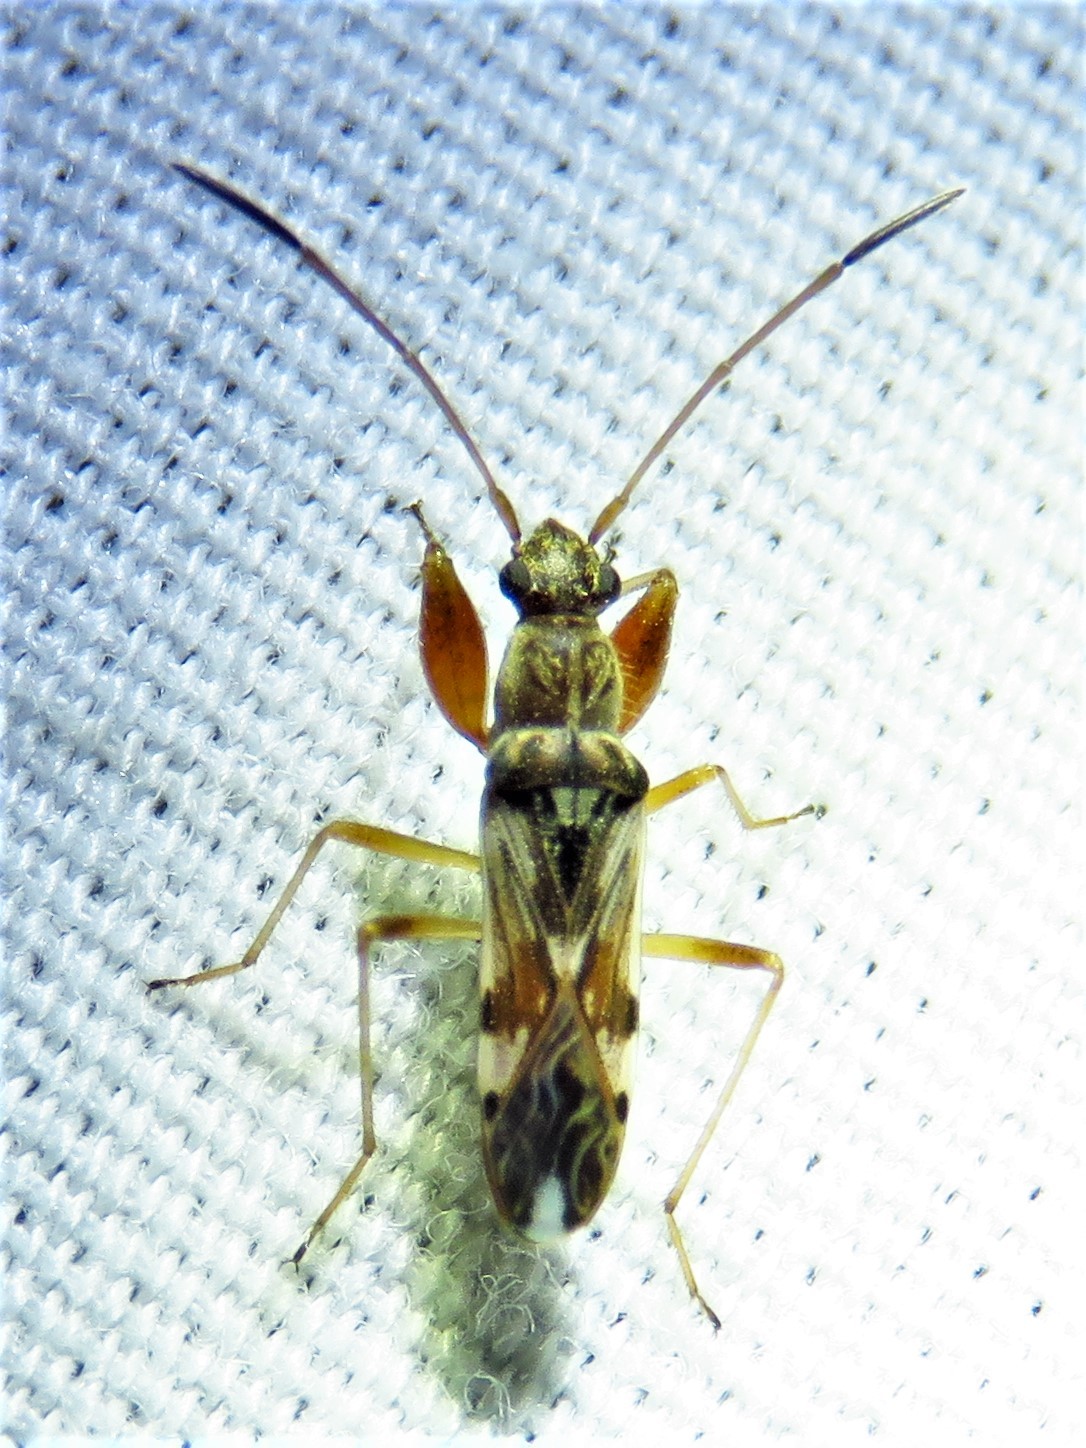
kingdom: Animalia
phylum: Arthropoda
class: Insecta
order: Hemiptera
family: Rhyparochromidae
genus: Neopamera
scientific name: Neopamera bilobata
